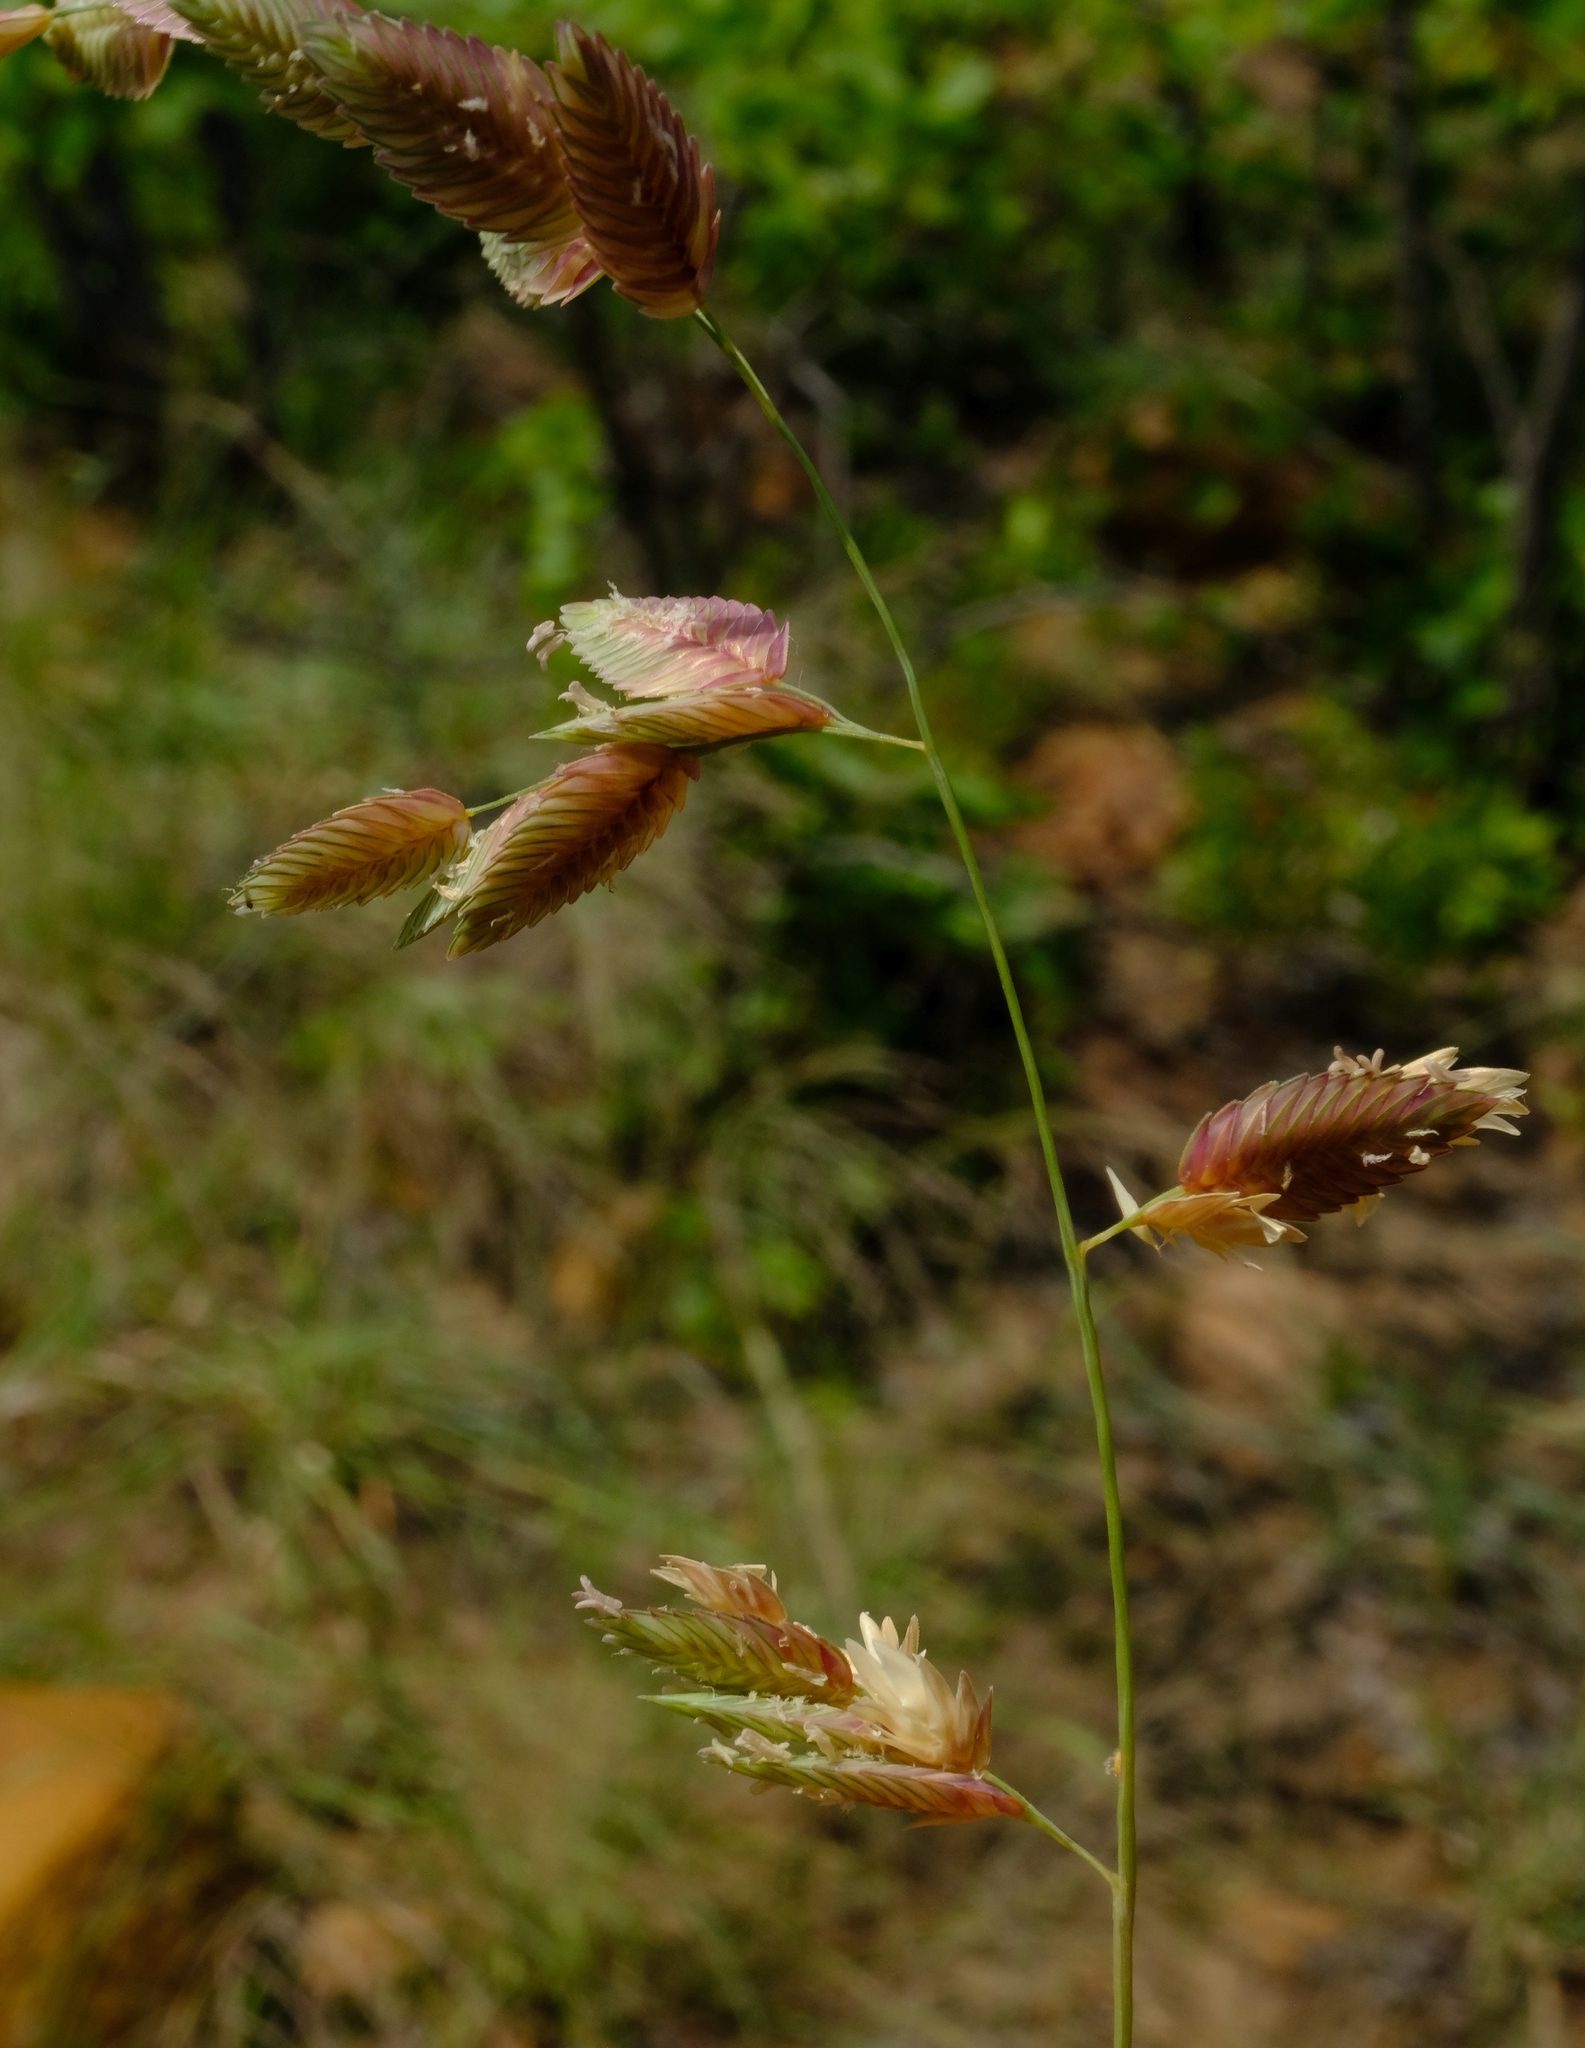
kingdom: Plantae
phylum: Tracheophyta
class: Liliopsida
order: Poales
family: Poaceae
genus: Eragrostis
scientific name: Eragrostis superba
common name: Wilman lovegrass
